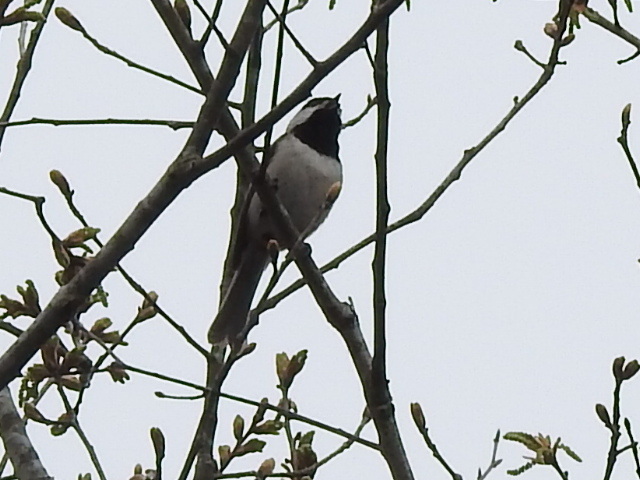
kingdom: Animalia
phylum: Chordata
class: Aves
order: Passeriformes
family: Paridae
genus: Poecile
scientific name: Poecile carolinensis
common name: Carolina chickadee
